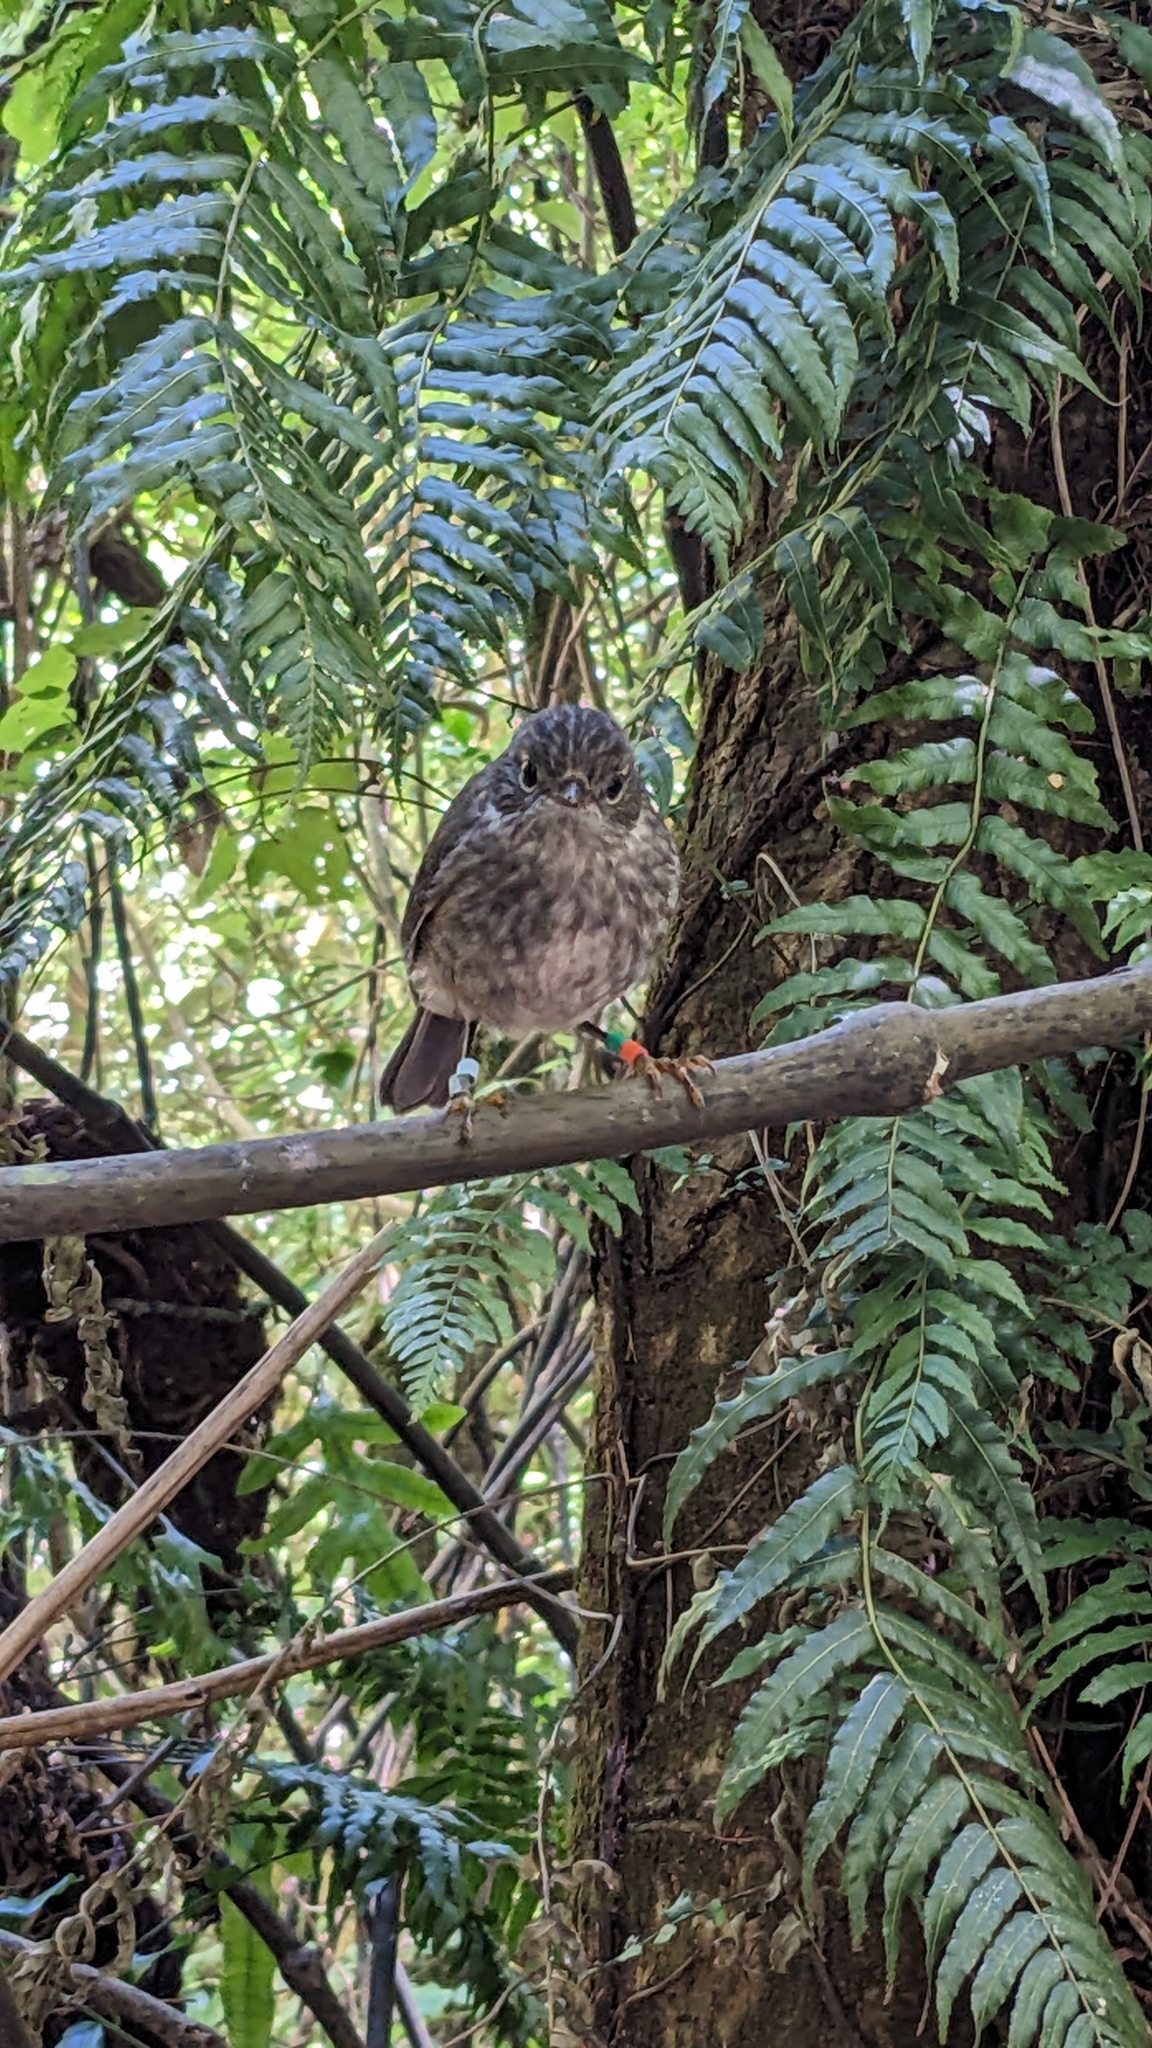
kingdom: Animalia
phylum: Chordata
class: Aves
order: Passeriformes
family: Petroicidae
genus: Petroica
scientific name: Petroica australis
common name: New zealand robin
